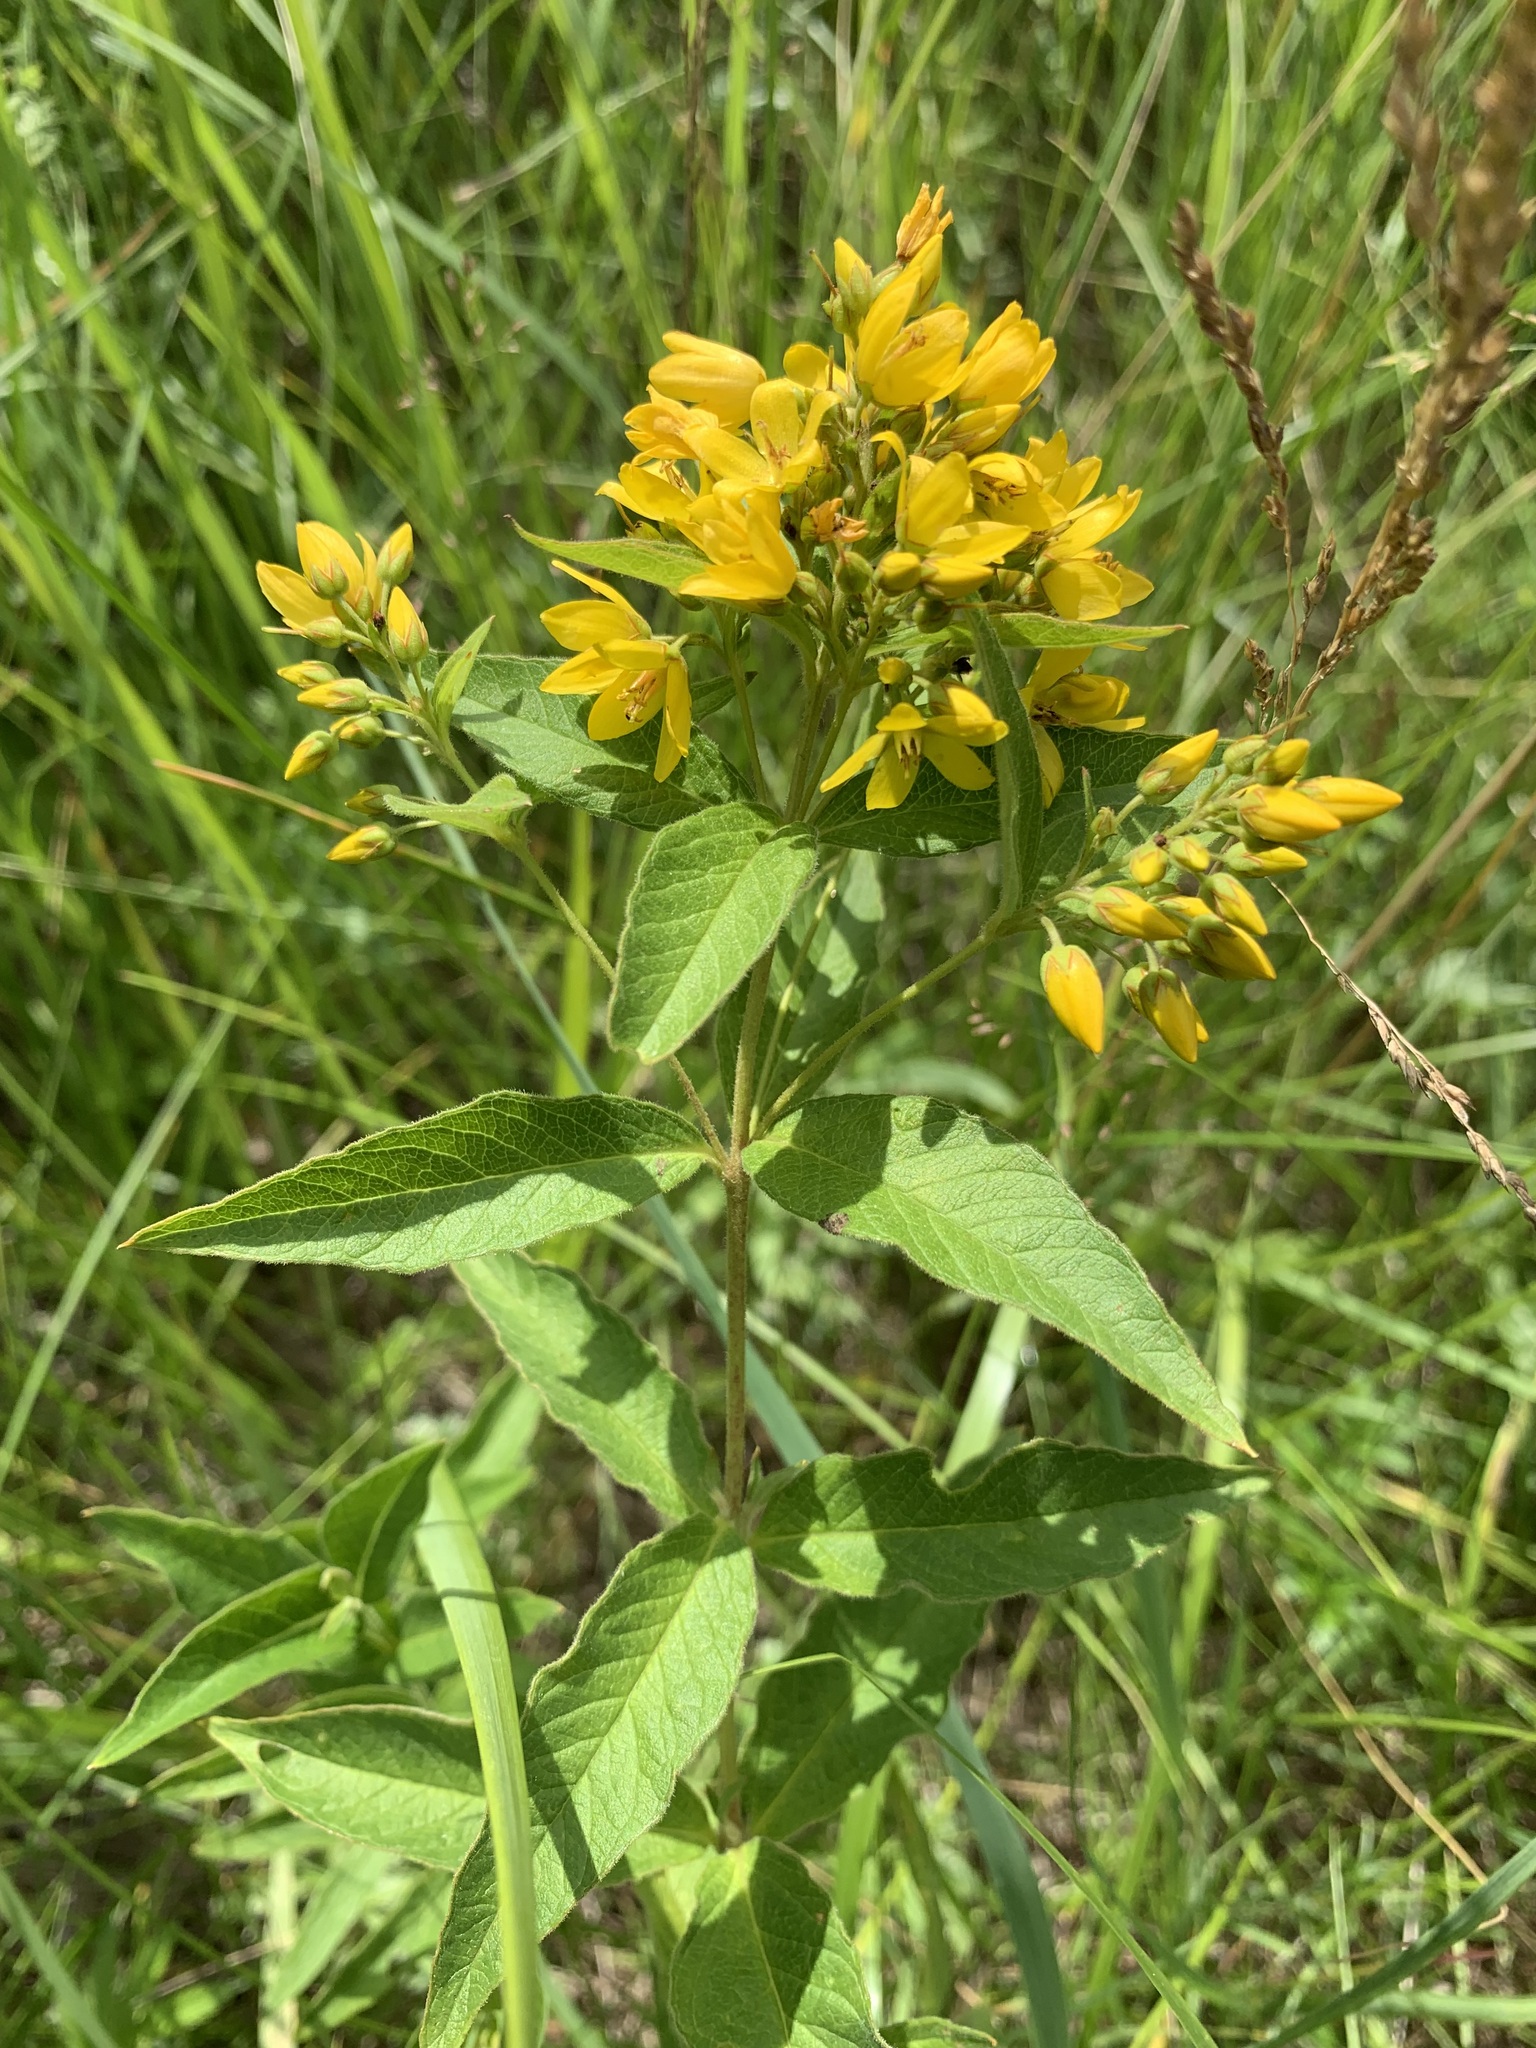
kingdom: Plantae
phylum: Tracheophyta
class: Magnoliopsida
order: Ericales
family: Primulaceae
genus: Lysimachia
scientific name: Lysimachia vulgaris
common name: Yellow loosestrife
